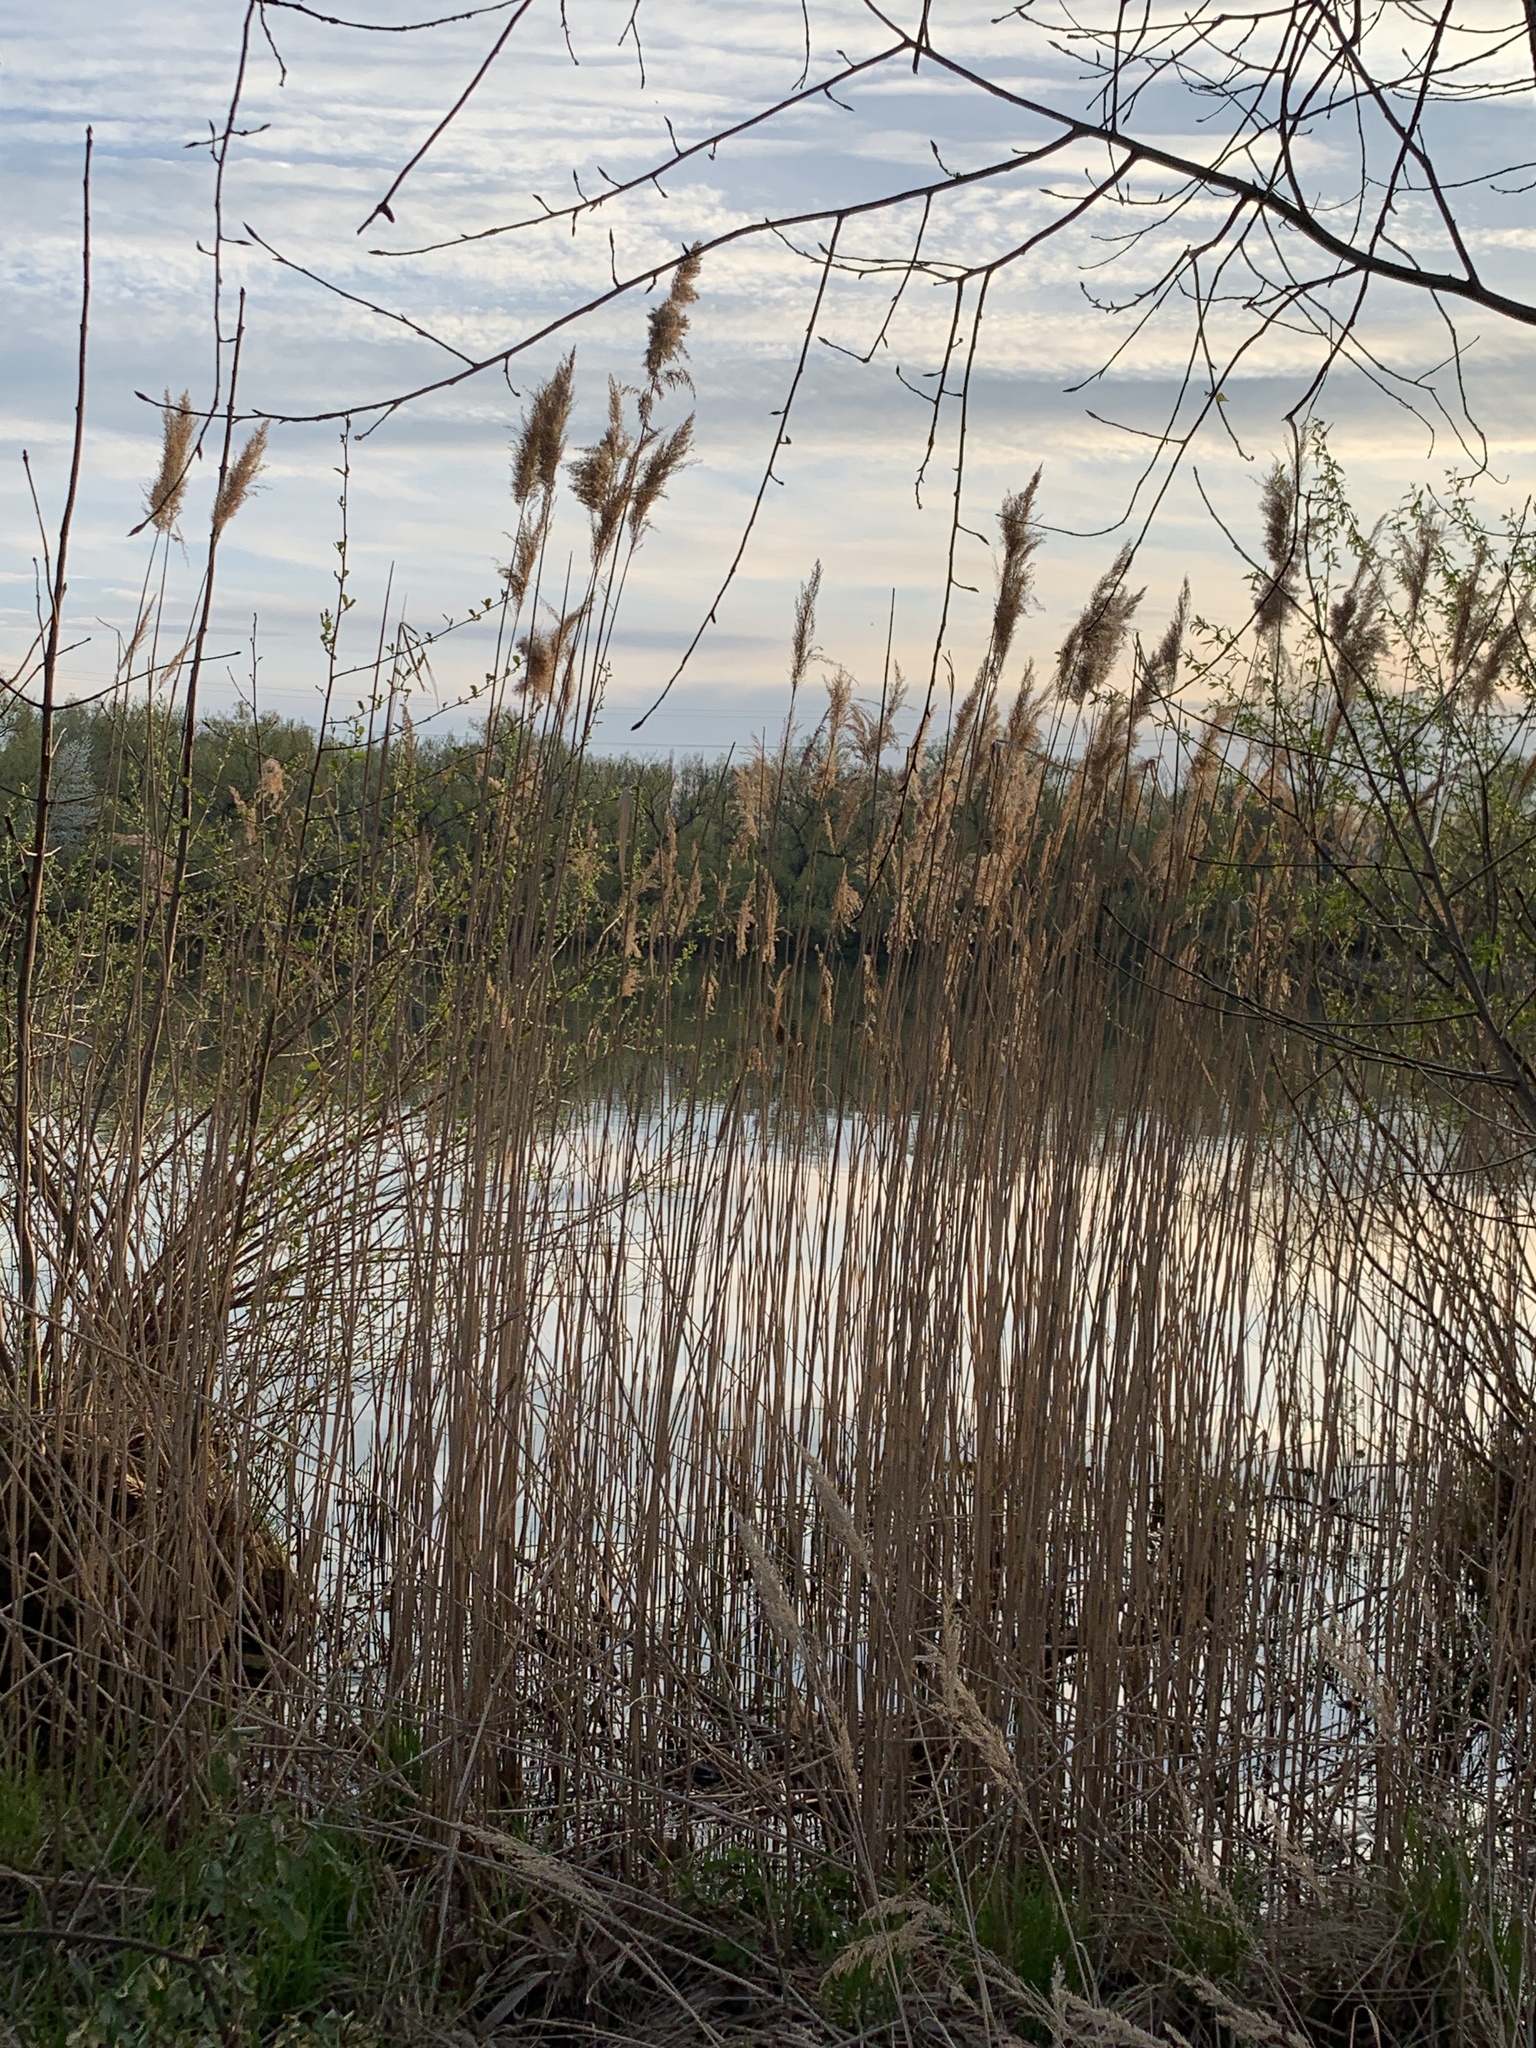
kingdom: Plantae
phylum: Tracheophyta
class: Liliopsida
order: Poales
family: Poaceae
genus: Phragmites
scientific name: Phragmites australis
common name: Common reed
